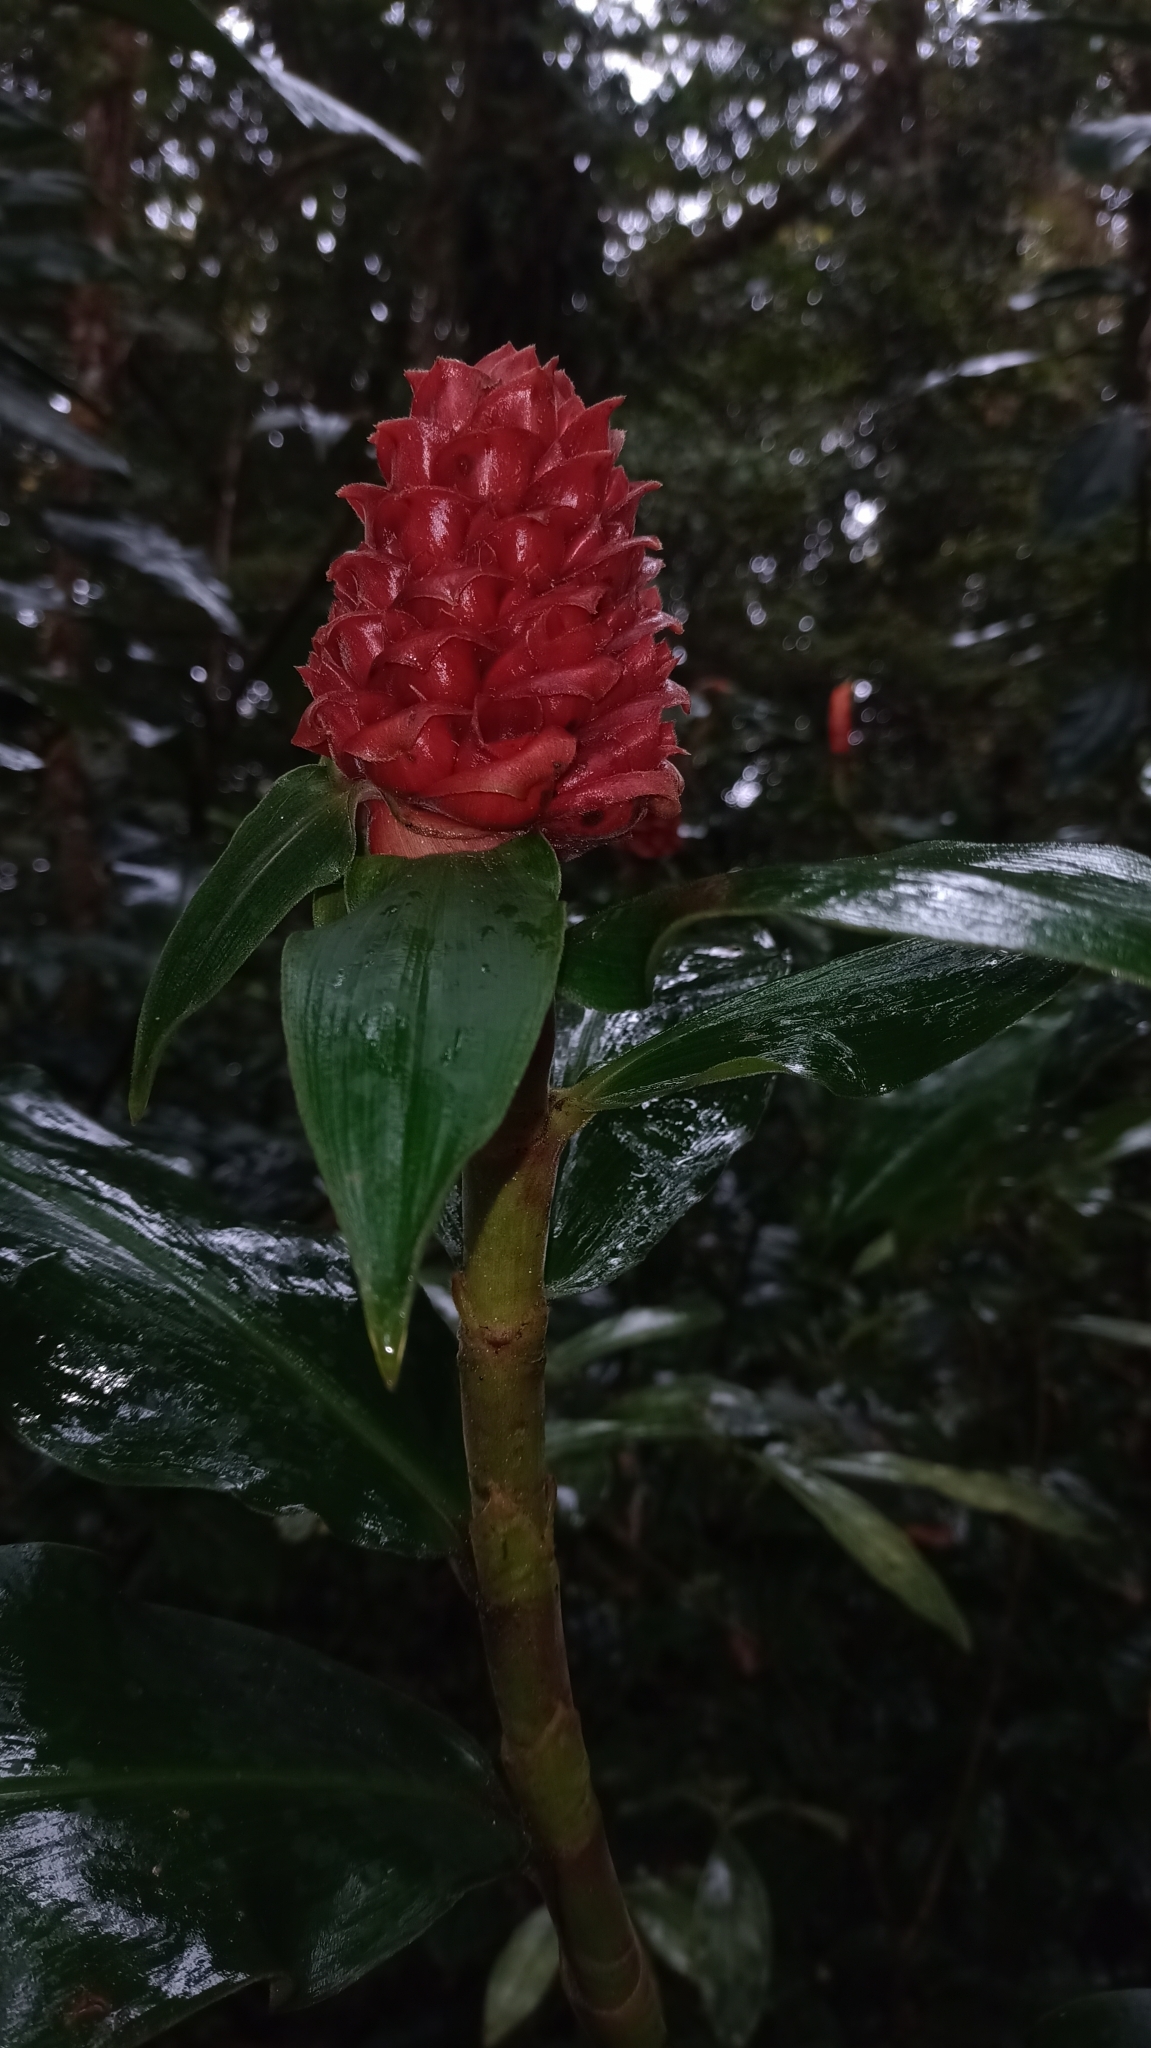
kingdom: Plantae
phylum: Tracheophyta
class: Liliopsida
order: Zingiberales
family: Costaceae
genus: Costus
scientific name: Costus montanus
